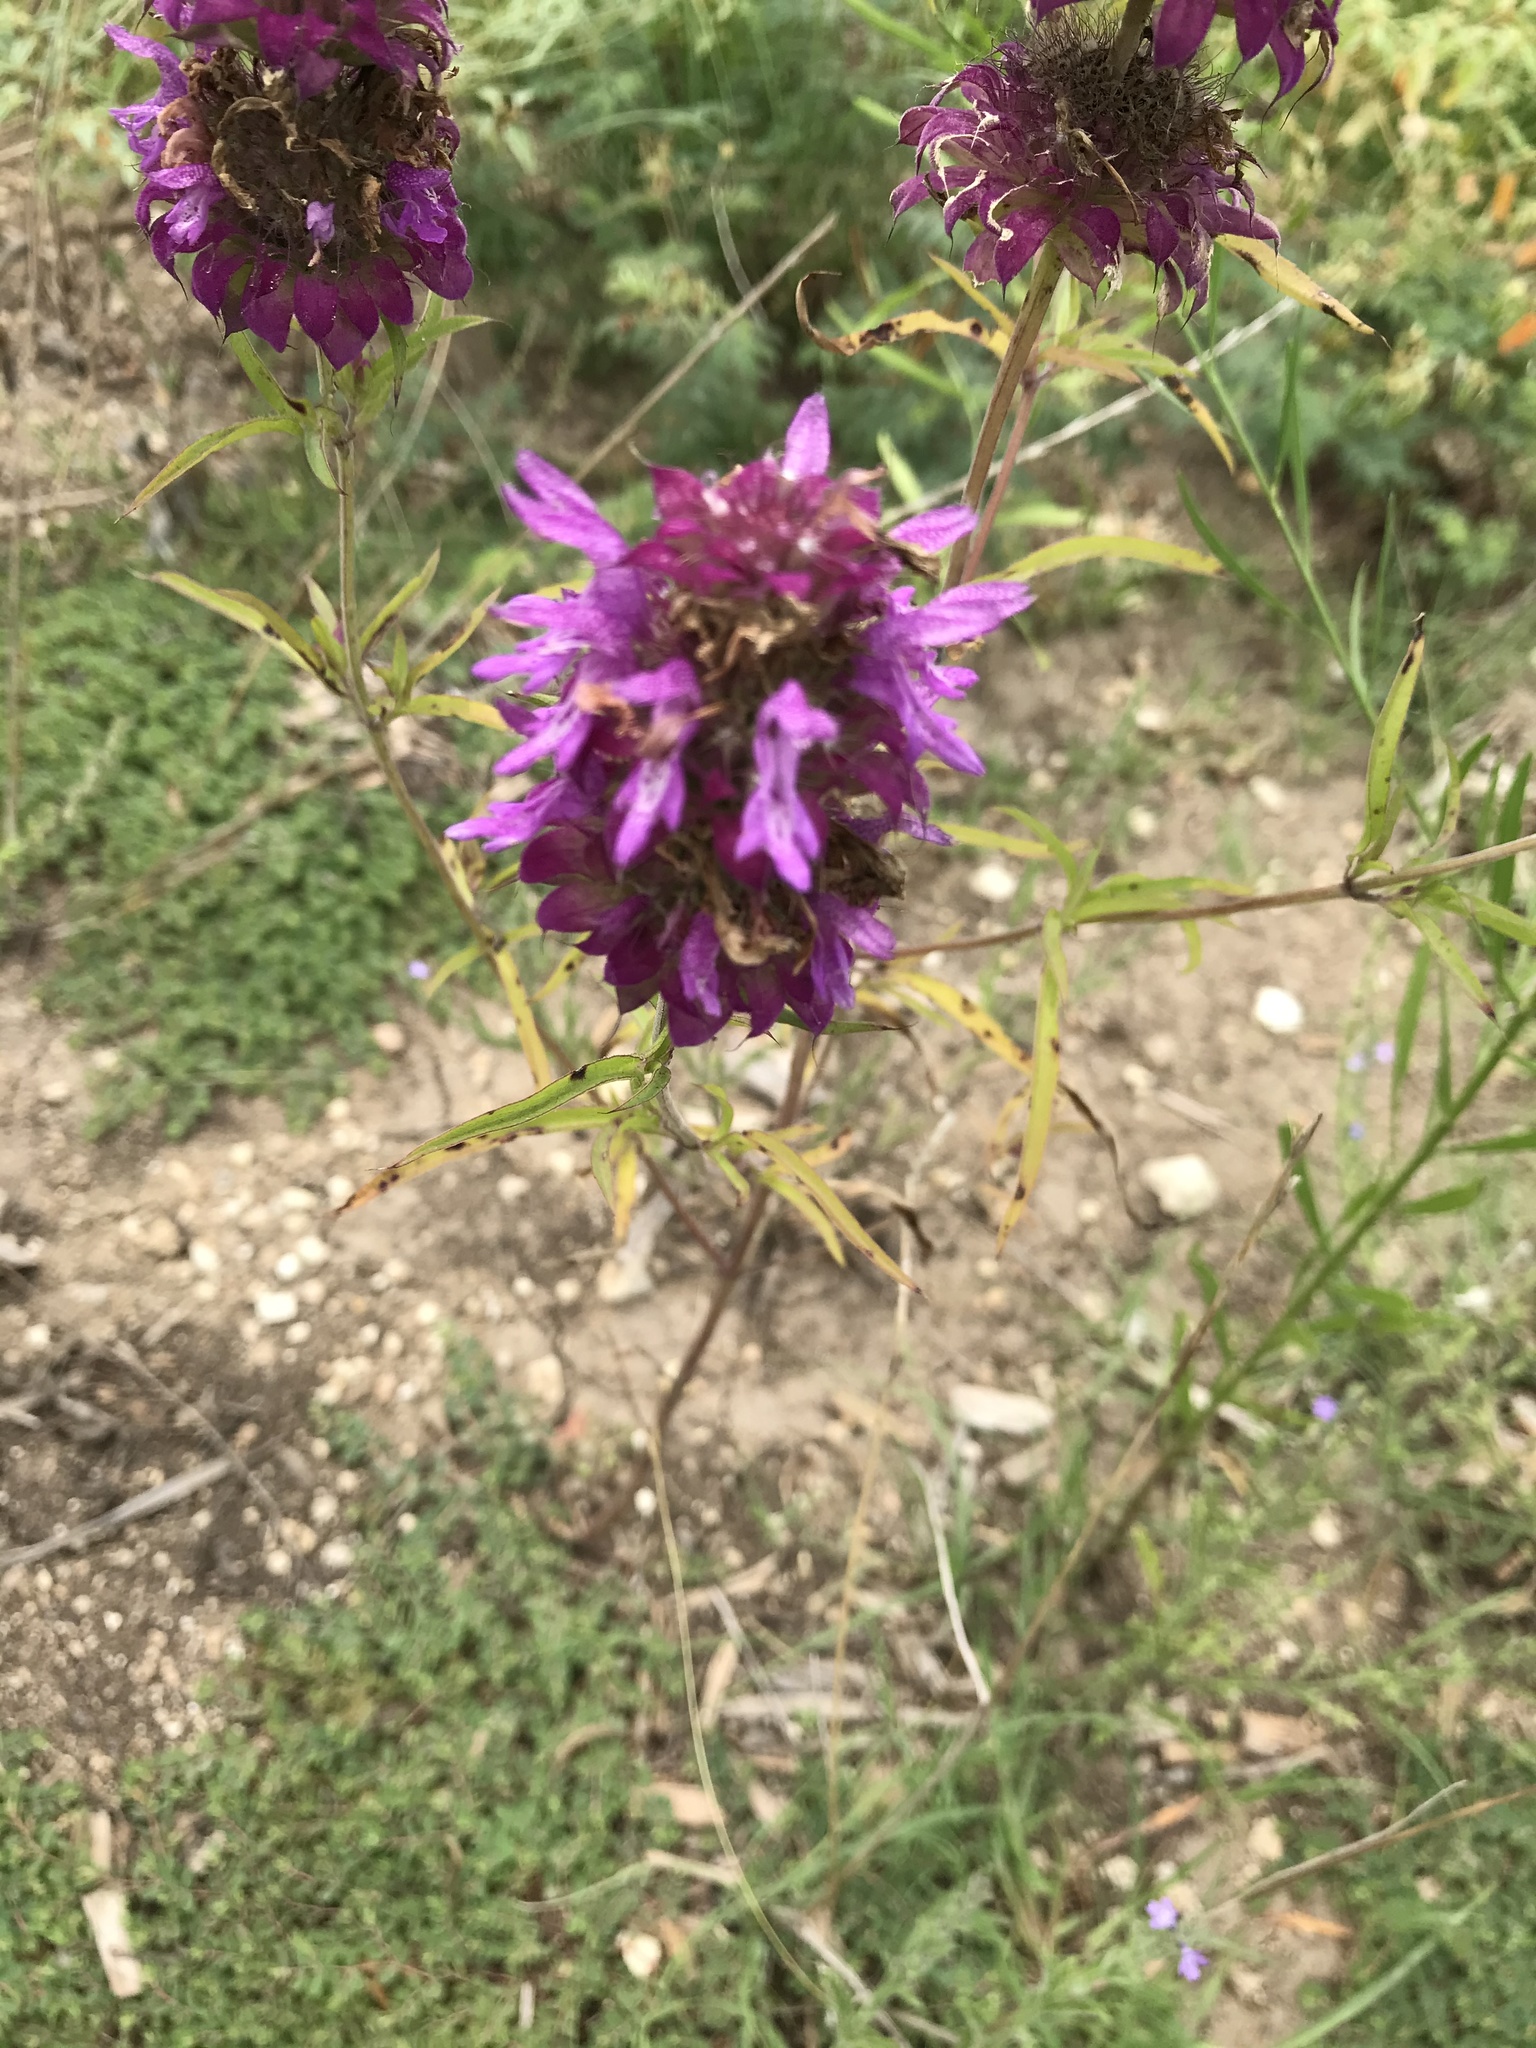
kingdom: Plantae
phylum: Tracheophyta
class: Magnoliopsida
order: Lamiales
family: Lamiaceae
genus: Monarda
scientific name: Monarda citriodora
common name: Lemon beebalm
